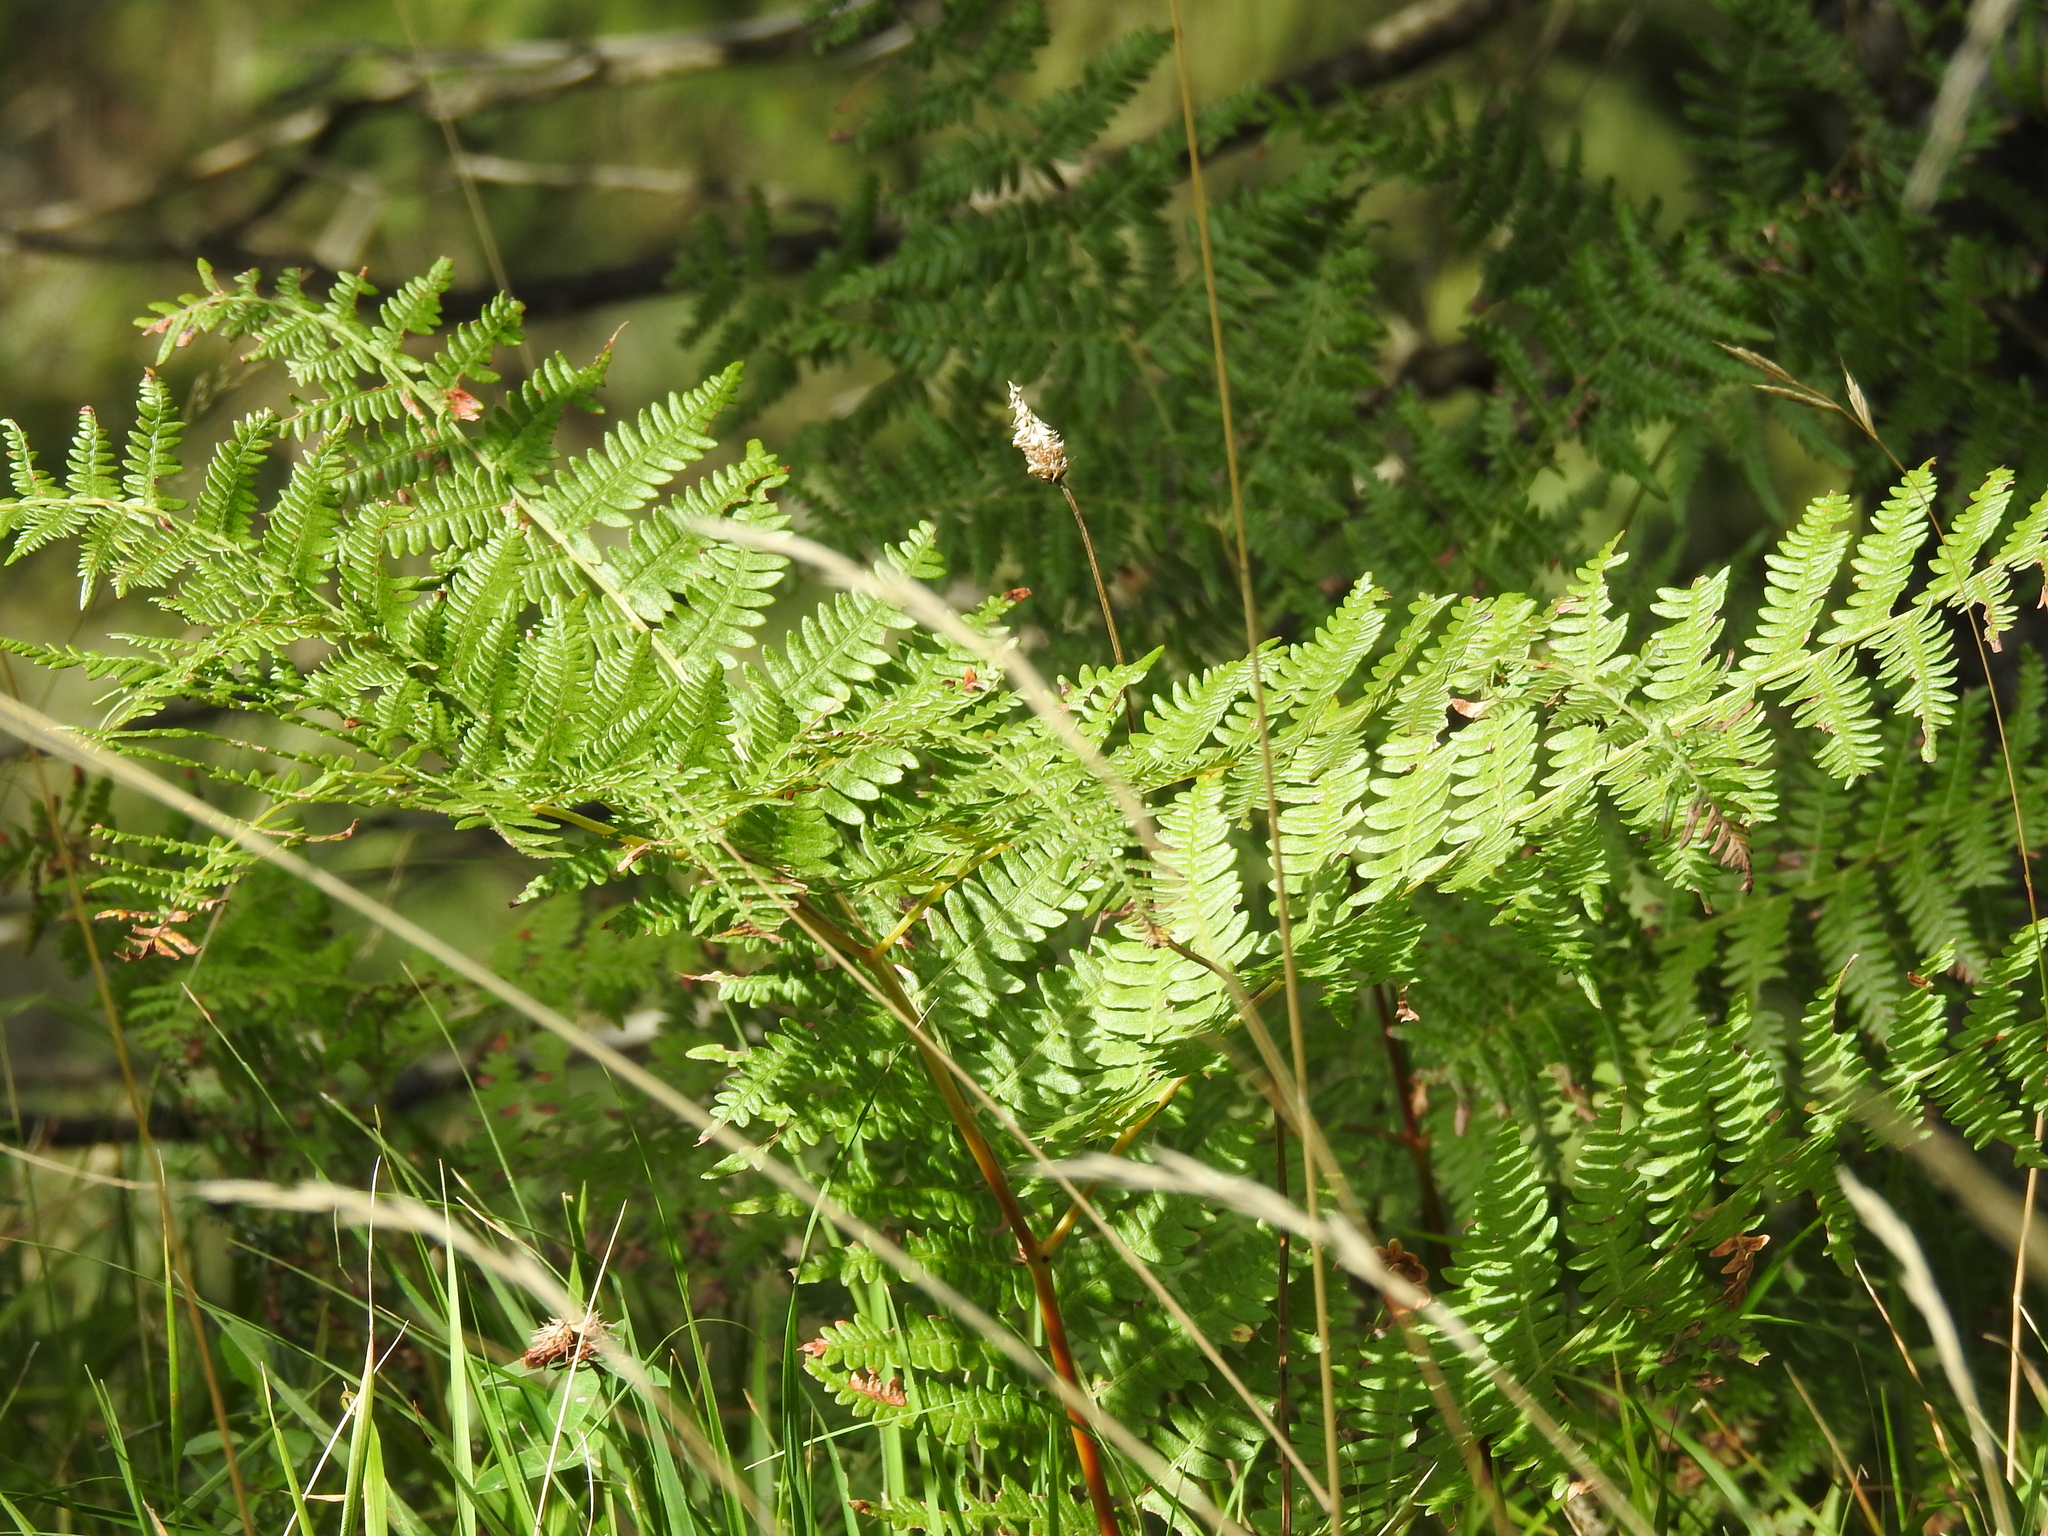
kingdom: Plantae
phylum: Tracheophyta
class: Polypodiopsida
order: Polypodiales
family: Dennstaedtiaceae
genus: Pteridium
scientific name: Pteridium aquilinum
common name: Bracken
